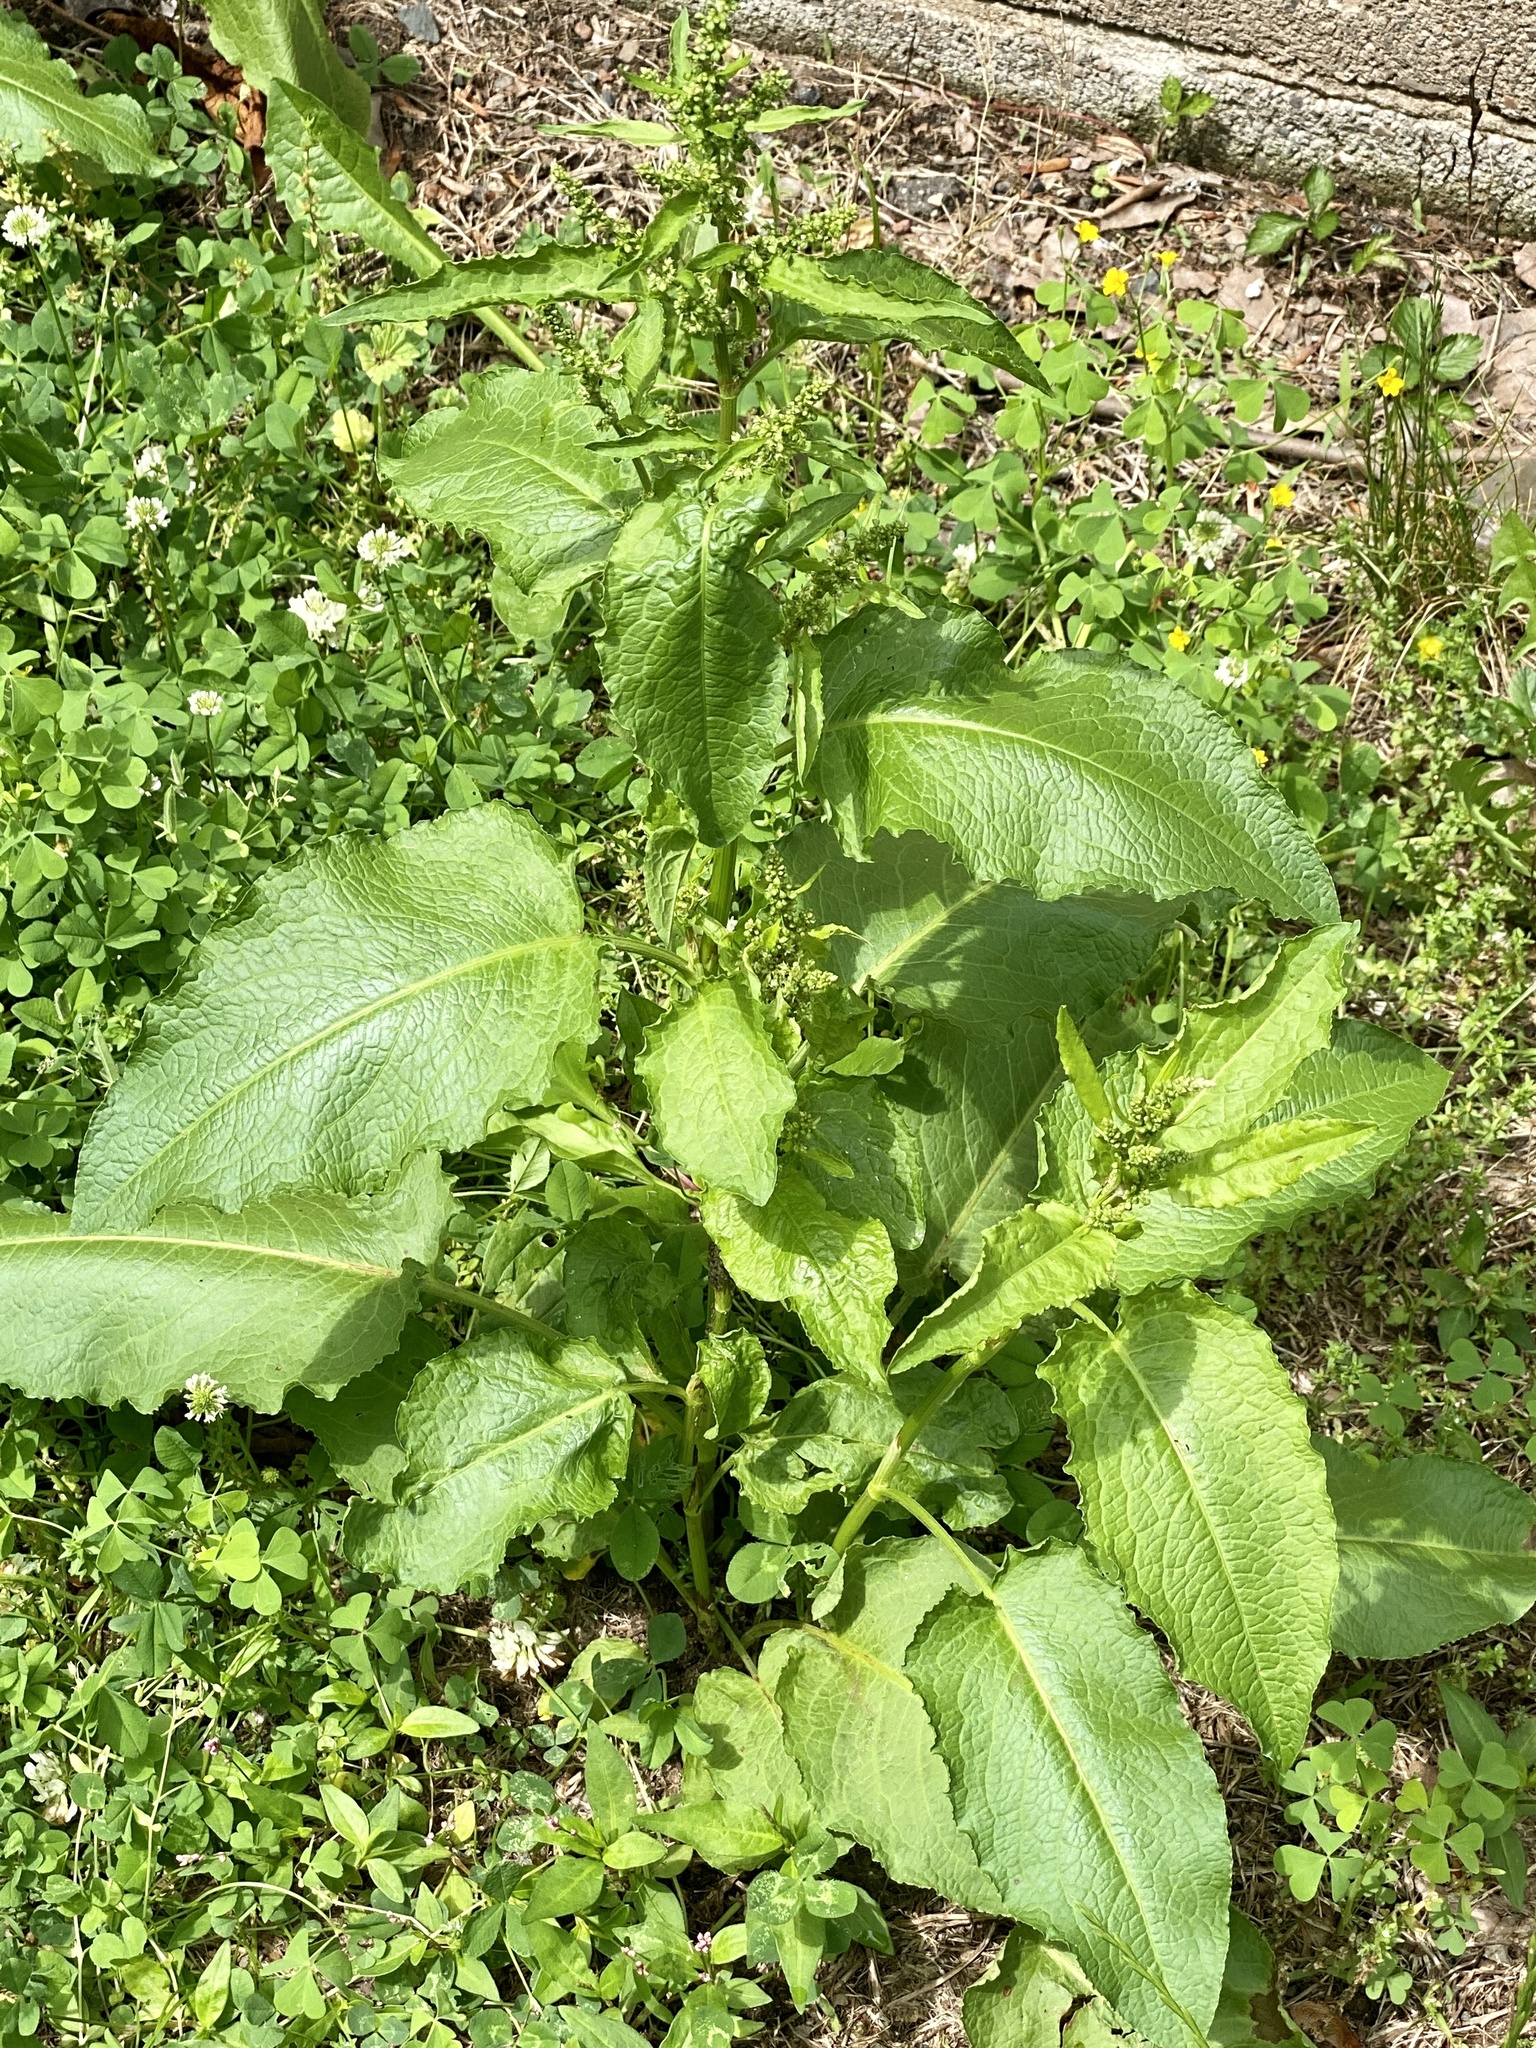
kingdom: Plantae
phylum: Tracheophyta
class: Magnoliopsida
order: Caryophyllales
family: Polygonaceae
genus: Rumex
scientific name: Rumex obtusifolius
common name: Bitter dock
